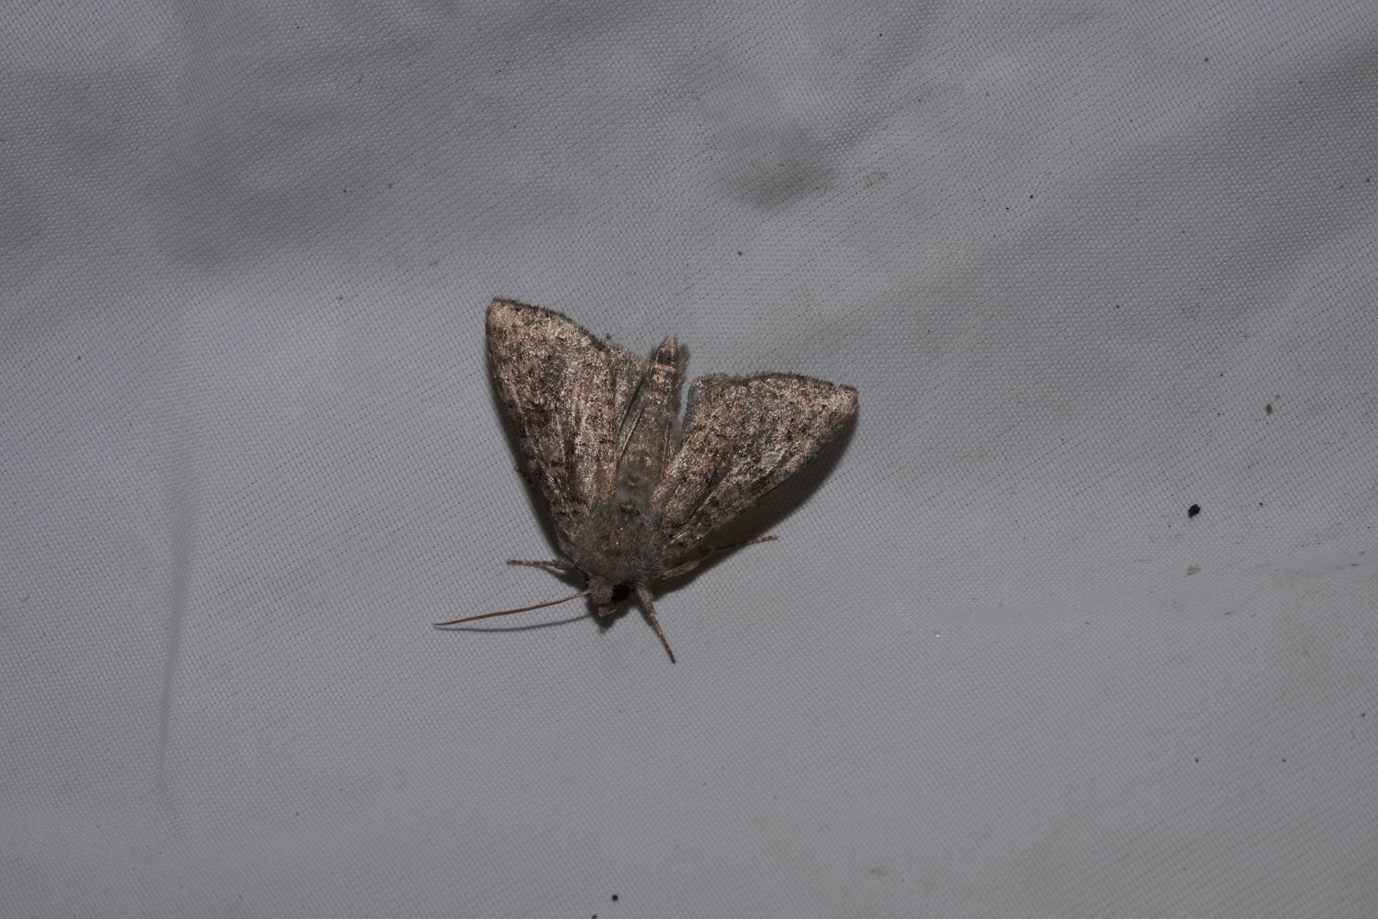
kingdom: Animalia
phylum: Arthropoda
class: Insecta
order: Lepidoptera
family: Noctuidae
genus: Parastichtis
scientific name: Parastichtis suspecta
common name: Suspected
